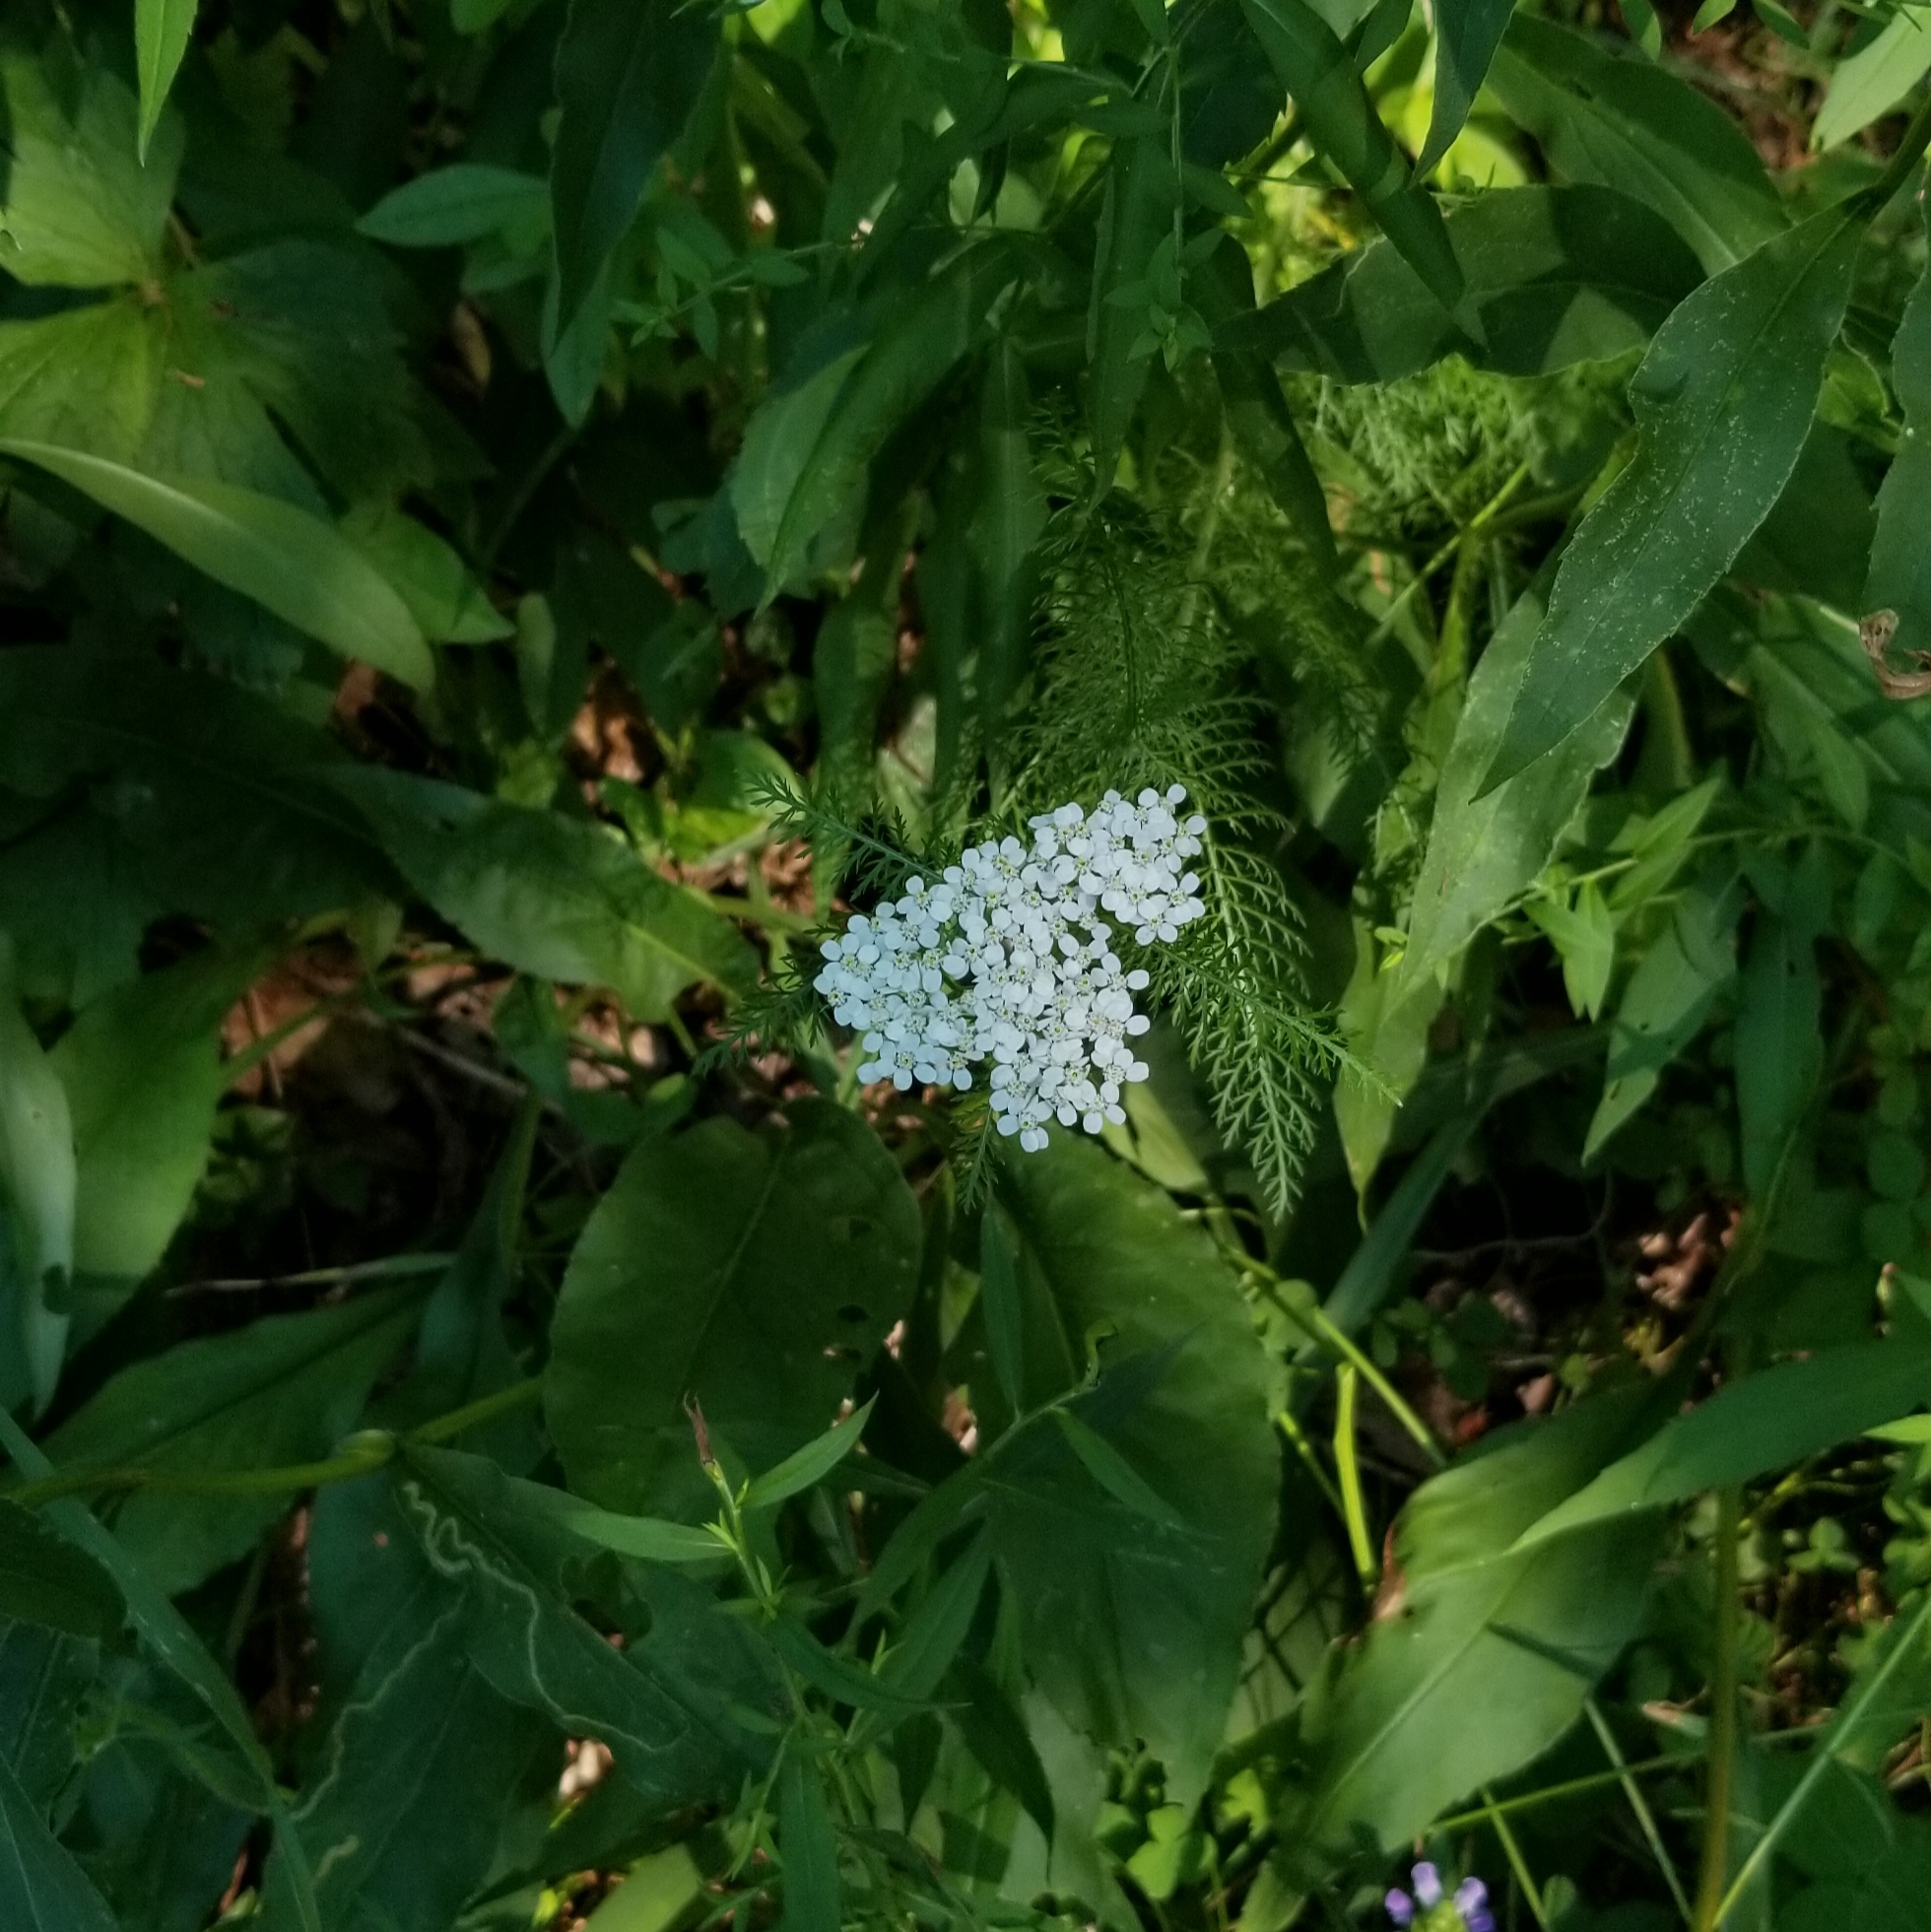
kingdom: Plantae
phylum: Tracheophyta
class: Magnoliopsida
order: Asterales
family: Asteraceae
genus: Achillea
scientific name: Achillea millefolium
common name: Yarrow
